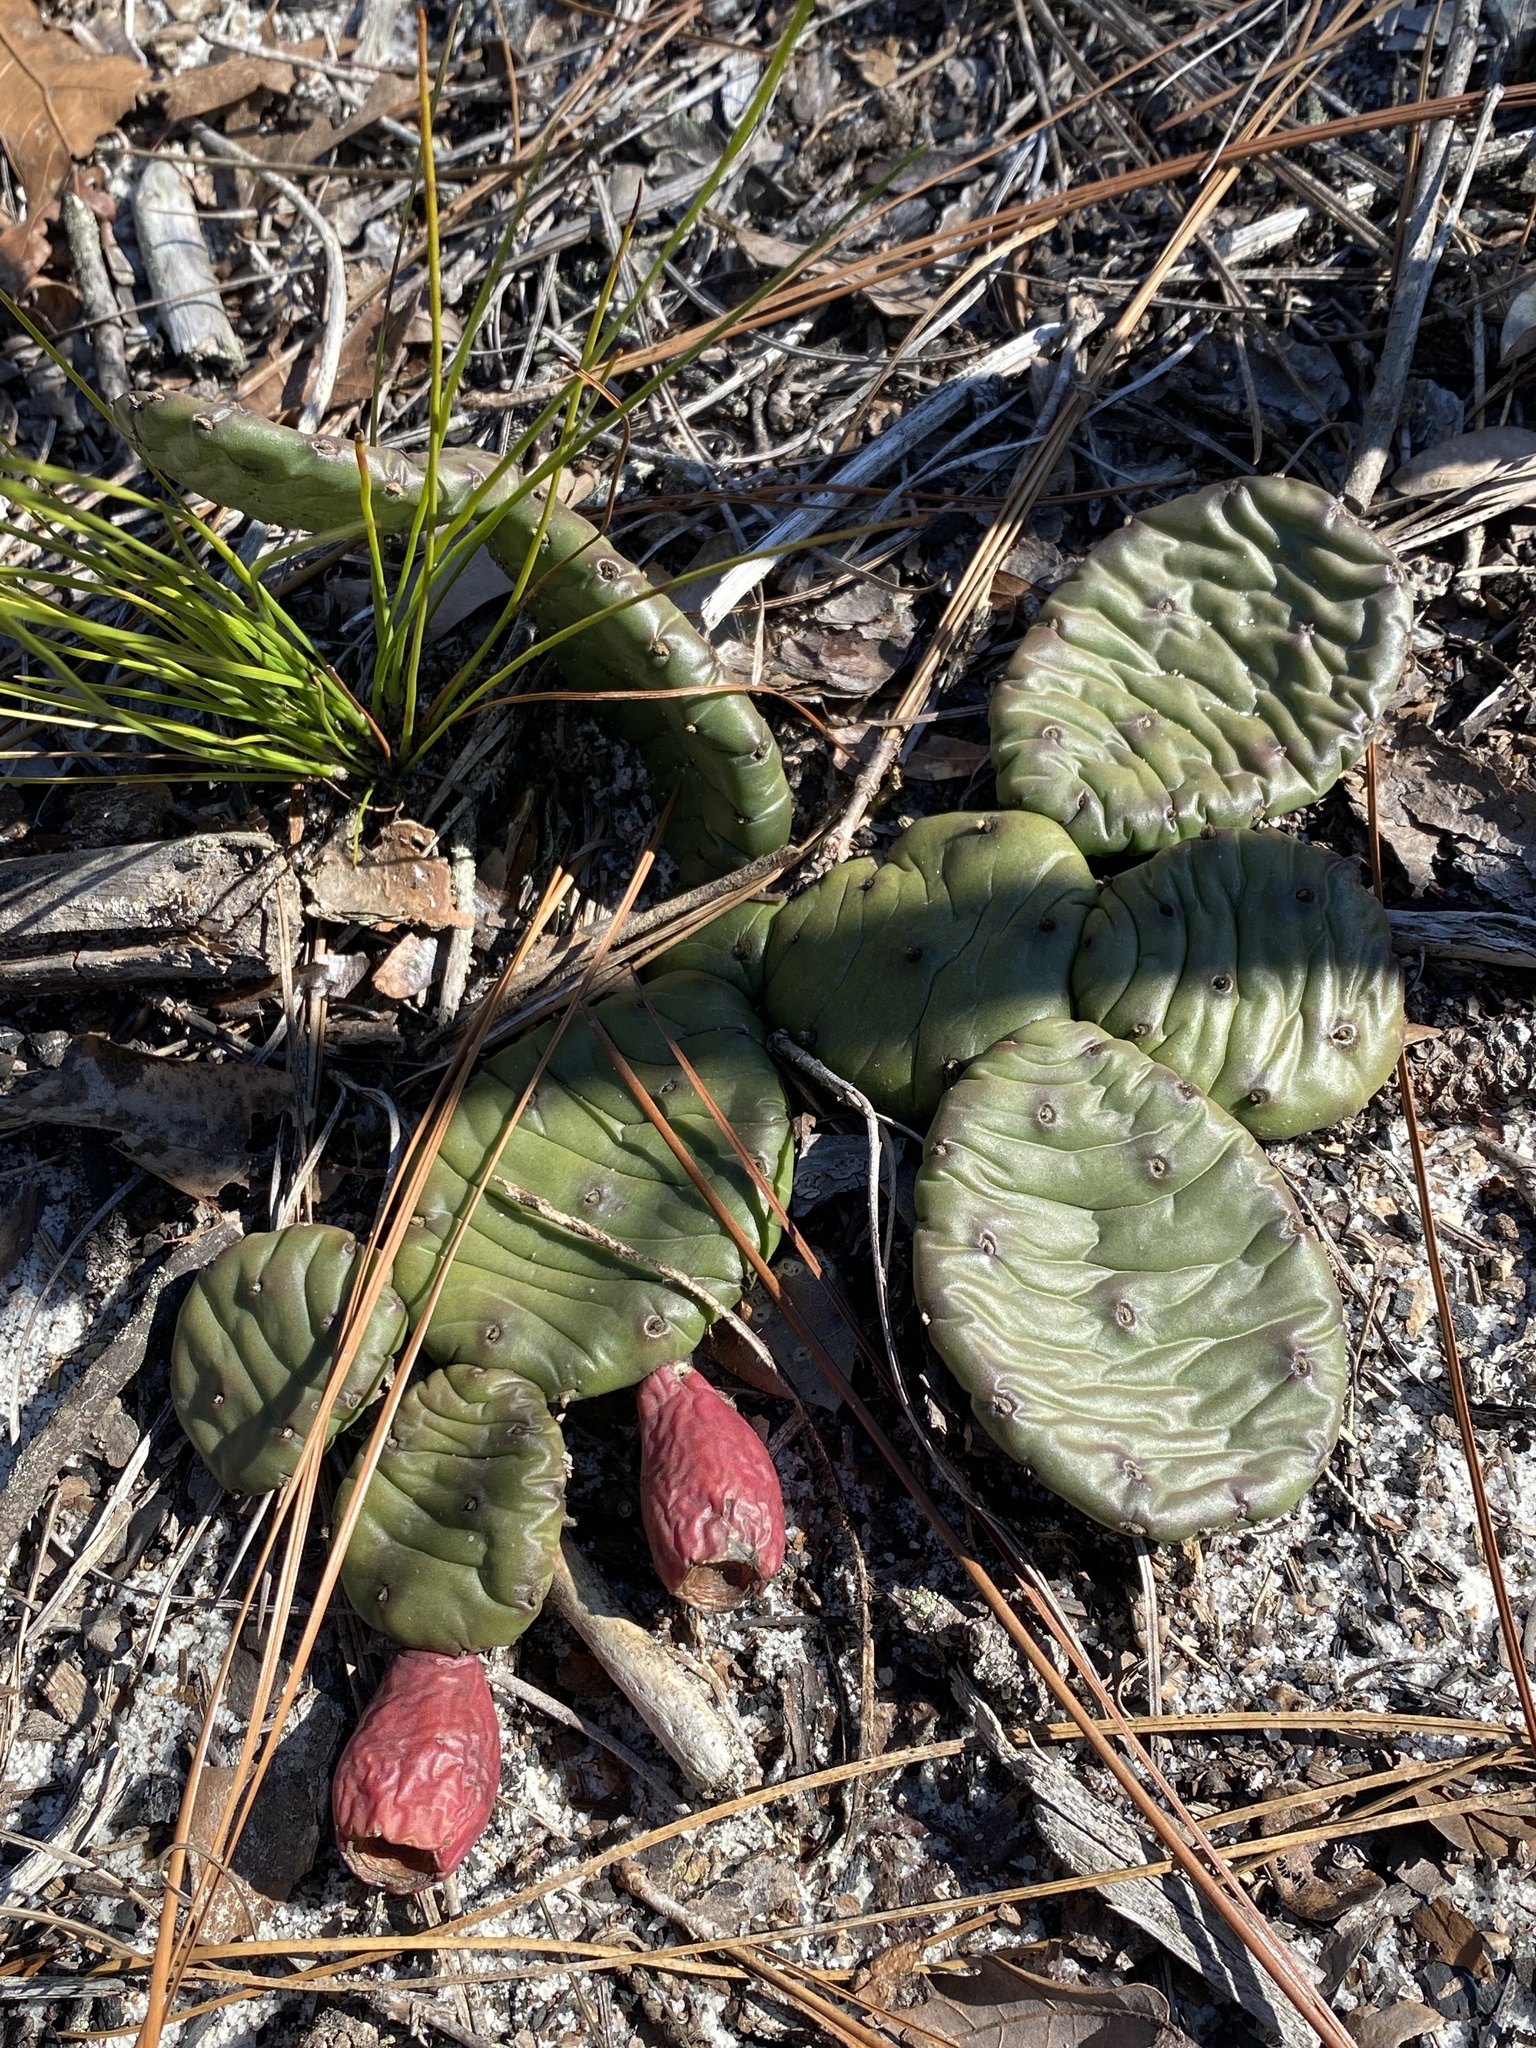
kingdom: Plantae
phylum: Tracheophyta
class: Magnoliopsida
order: Caryophyllales
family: Cactaceae
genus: Opuntia
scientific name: Opuntia mesacantha
